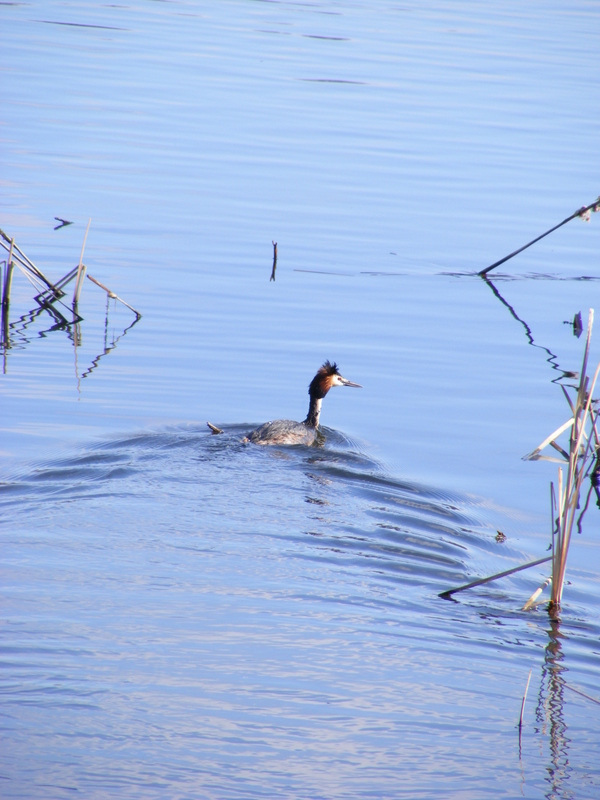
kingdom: Animalia
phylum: Chordata
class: Aves
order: Podicipediformes
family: Podicipedidae
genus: Podiceps
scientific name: Podiceps cristatus
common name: Great crested grebe
